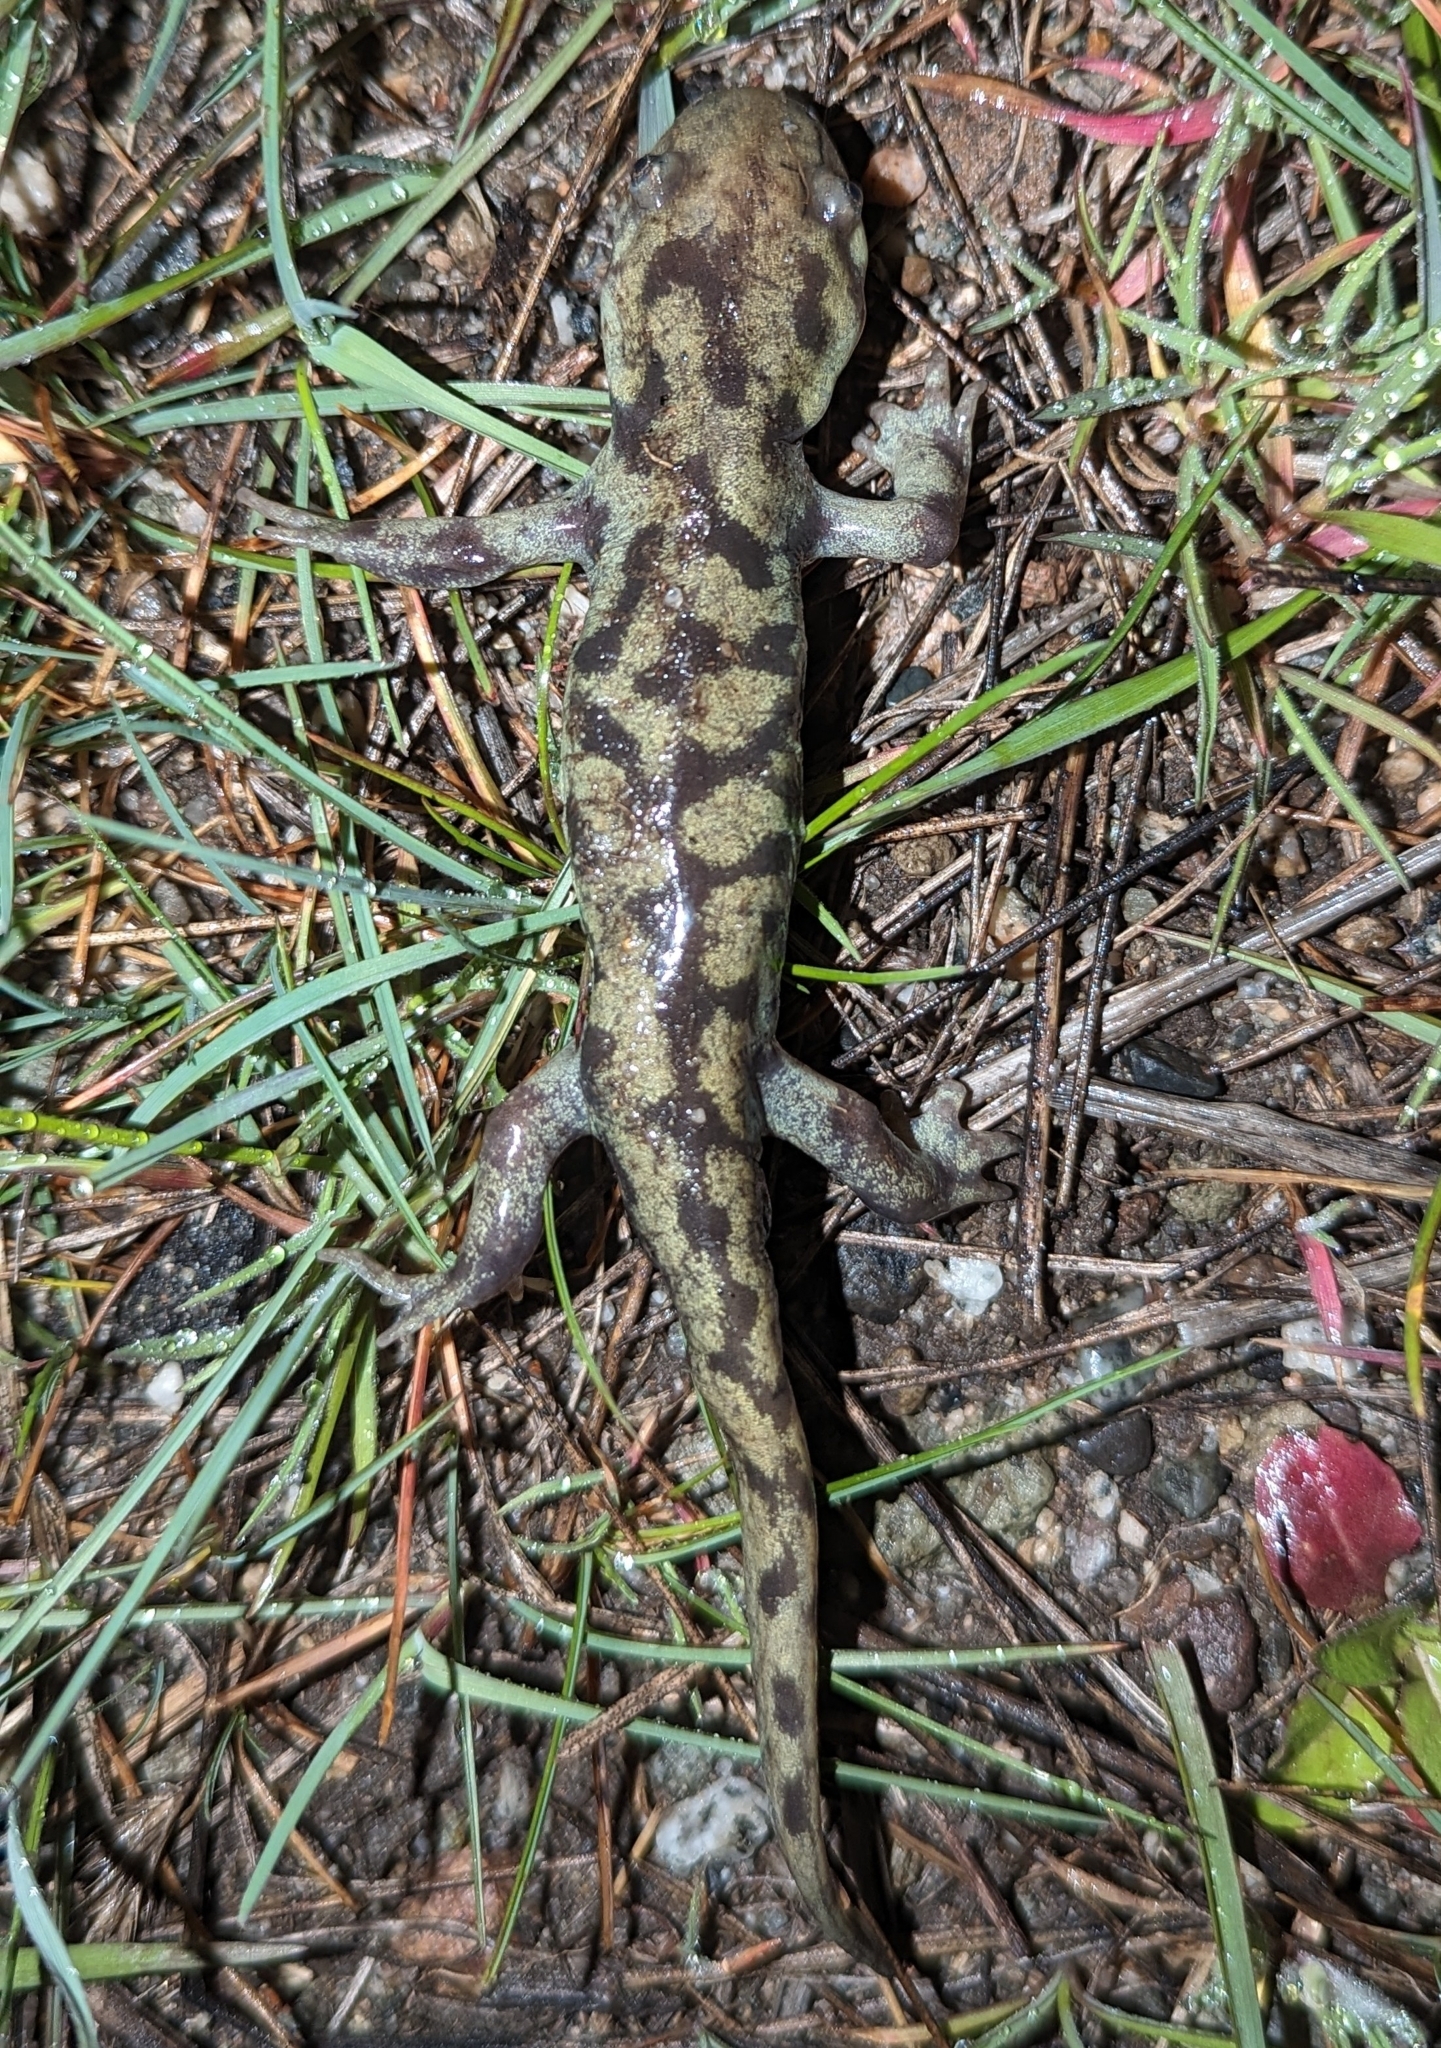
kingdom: Animalia
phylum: Chordata
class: Amphibia
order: Caudata
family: Ambystomatidae
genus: Ambystoma
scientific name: Ambystoma mavortium
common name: Western tiger salamander
